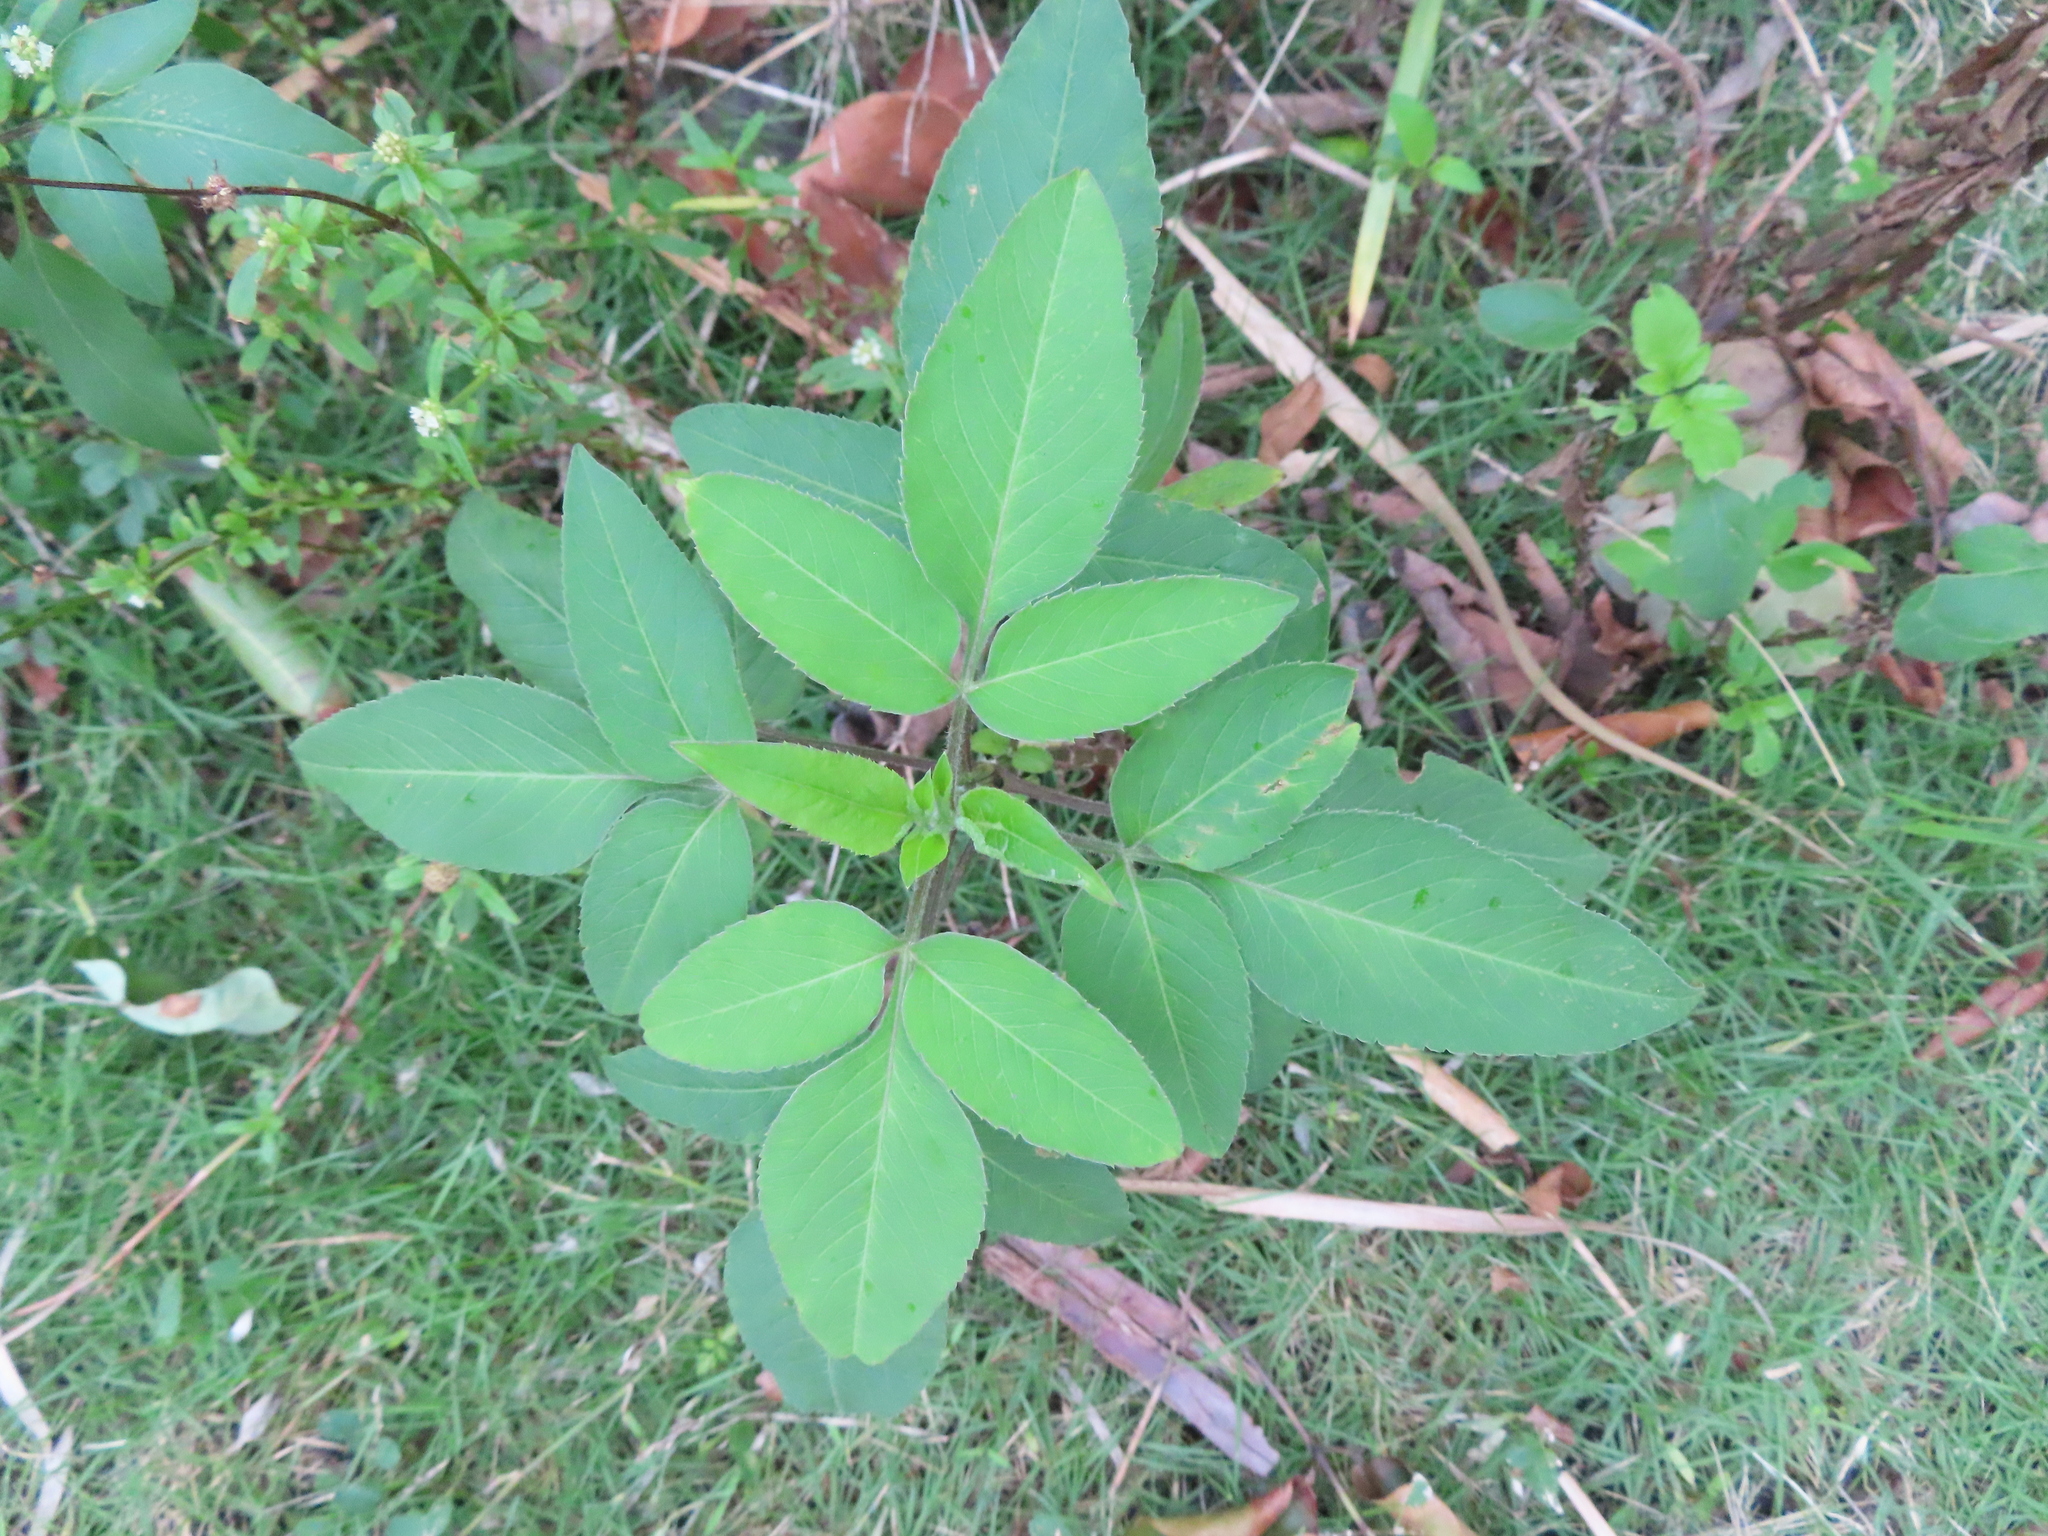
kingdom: Plantae
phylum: Tracheophyta
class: Magnoliopsida
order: Asterales
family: Asteraceae
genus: Bidens
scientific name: Bidens alba
